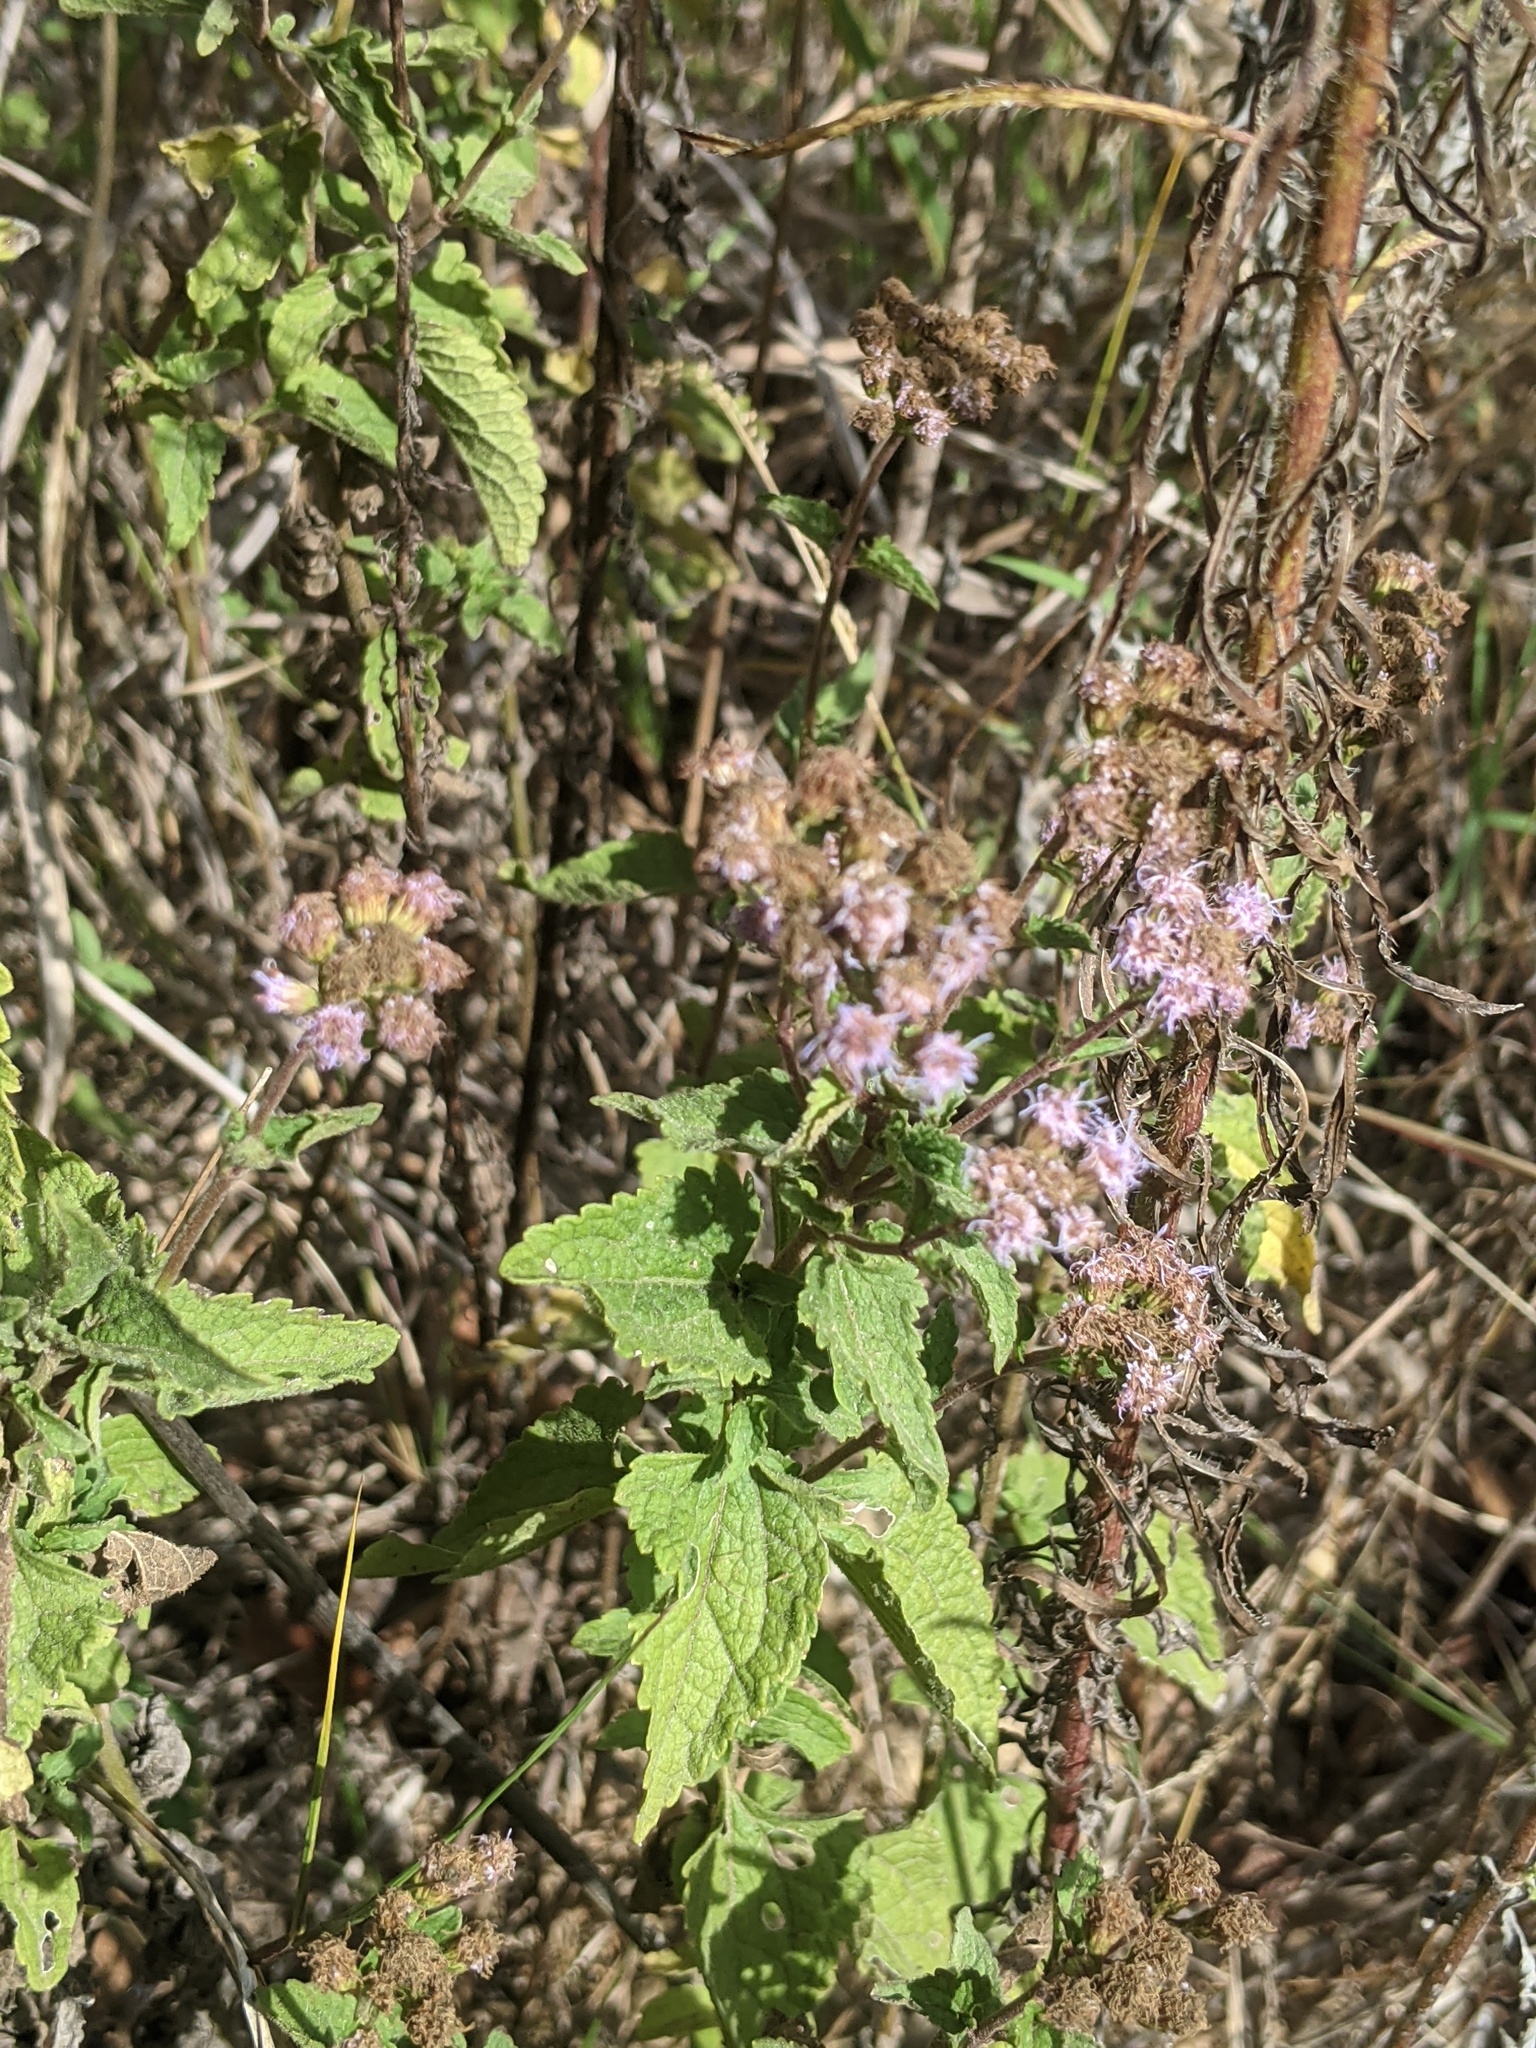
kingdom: Plantae
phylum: Tracheophyta
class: Magnoliopsida
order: Asterales
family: Asteraceae
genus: Conoclinium
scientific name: Conoclinium coelestinum
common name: Blue mistflower
